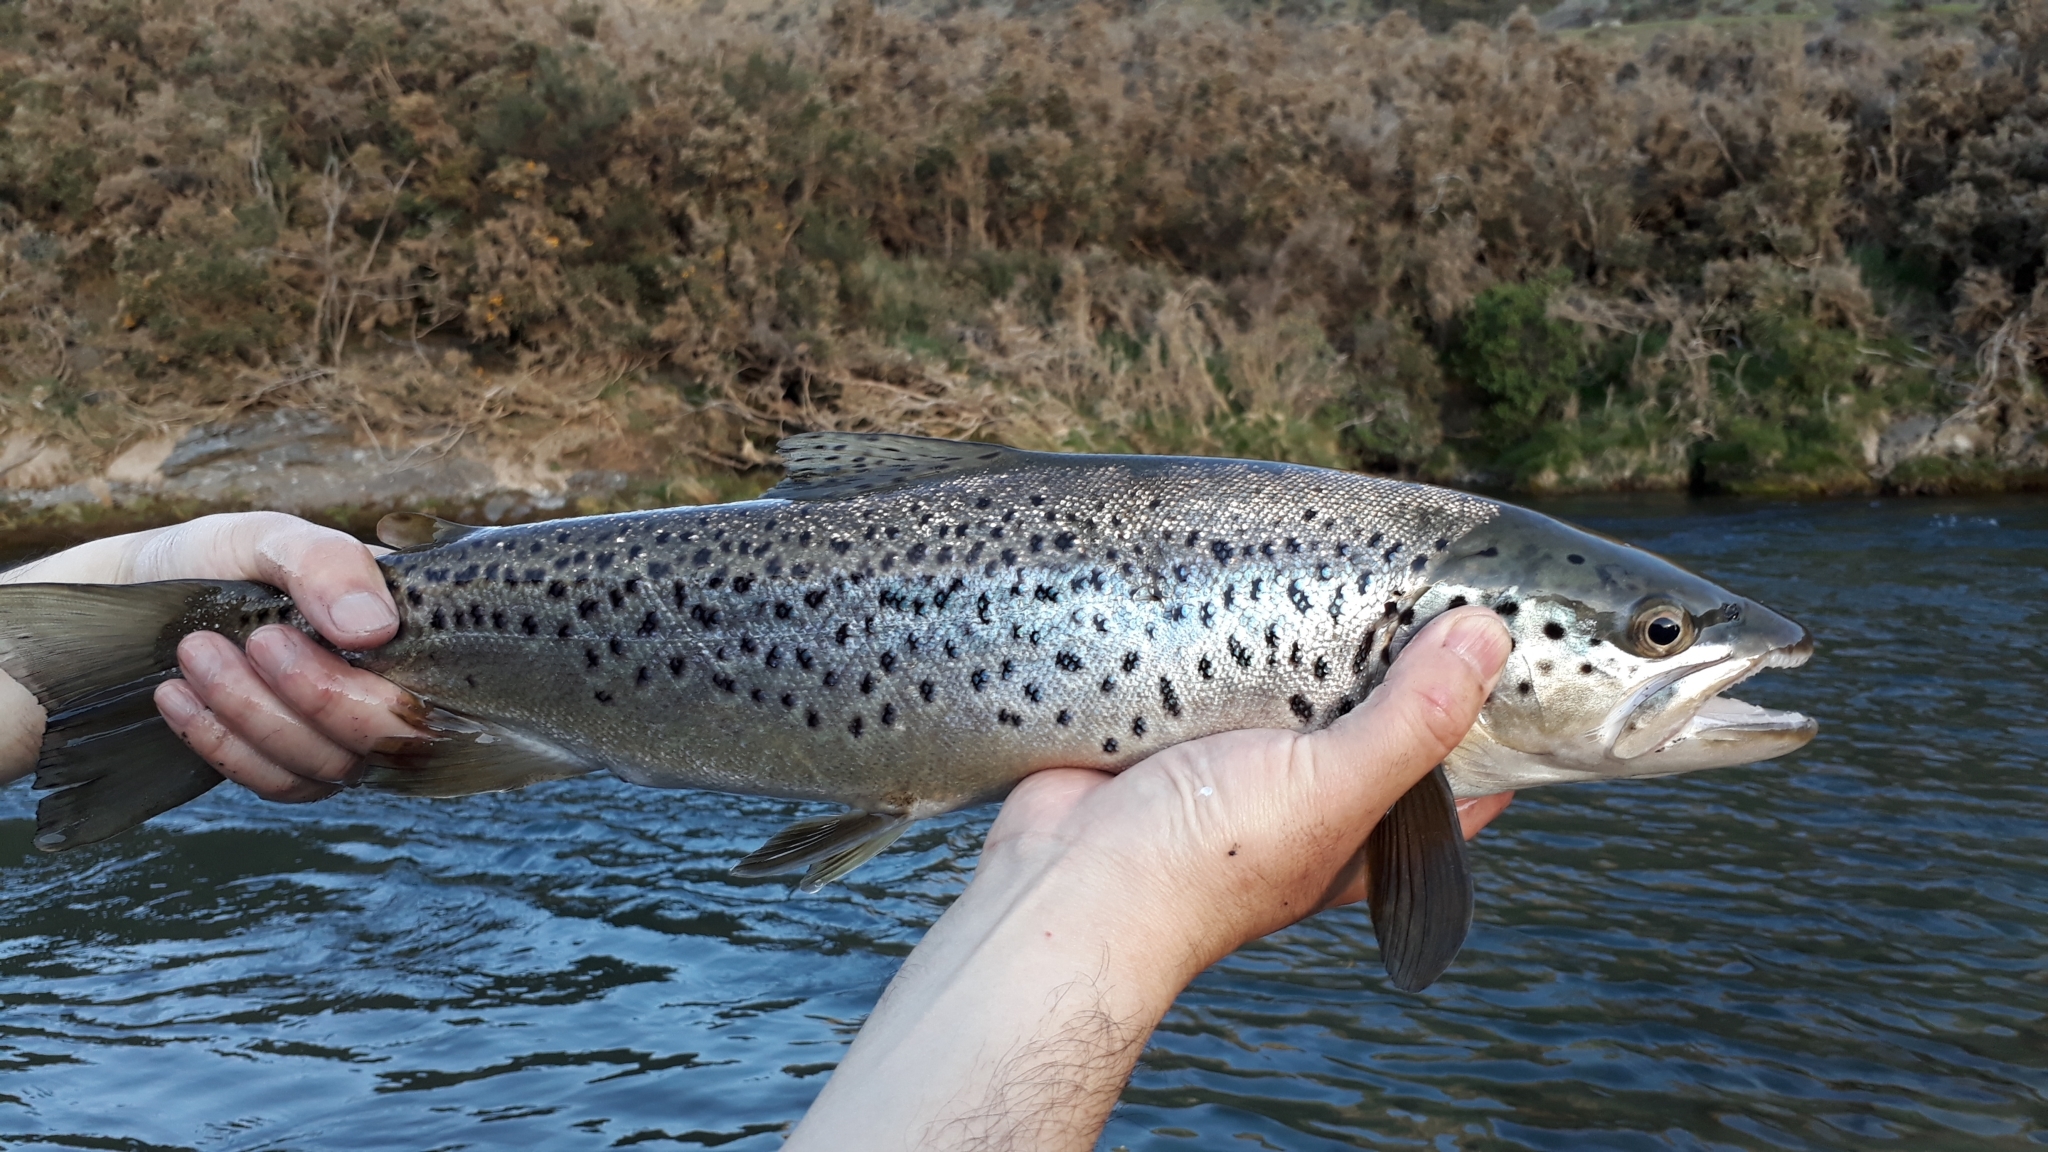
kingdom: Animalia
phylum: Chordata
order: Salmoniformes
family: Salmonidae
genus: Salmo
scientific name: Salmo trutta
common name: Brown trout
